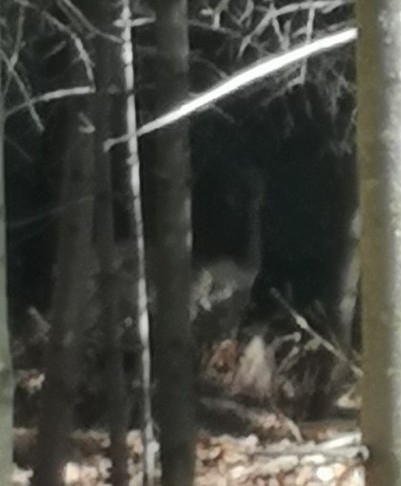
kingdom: Animalia
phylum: Chordata
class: Mammalia
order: Artiodactyla
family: Cervidae
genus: Capreolus
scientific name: Capreolus capreolus
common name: Western roe deer
